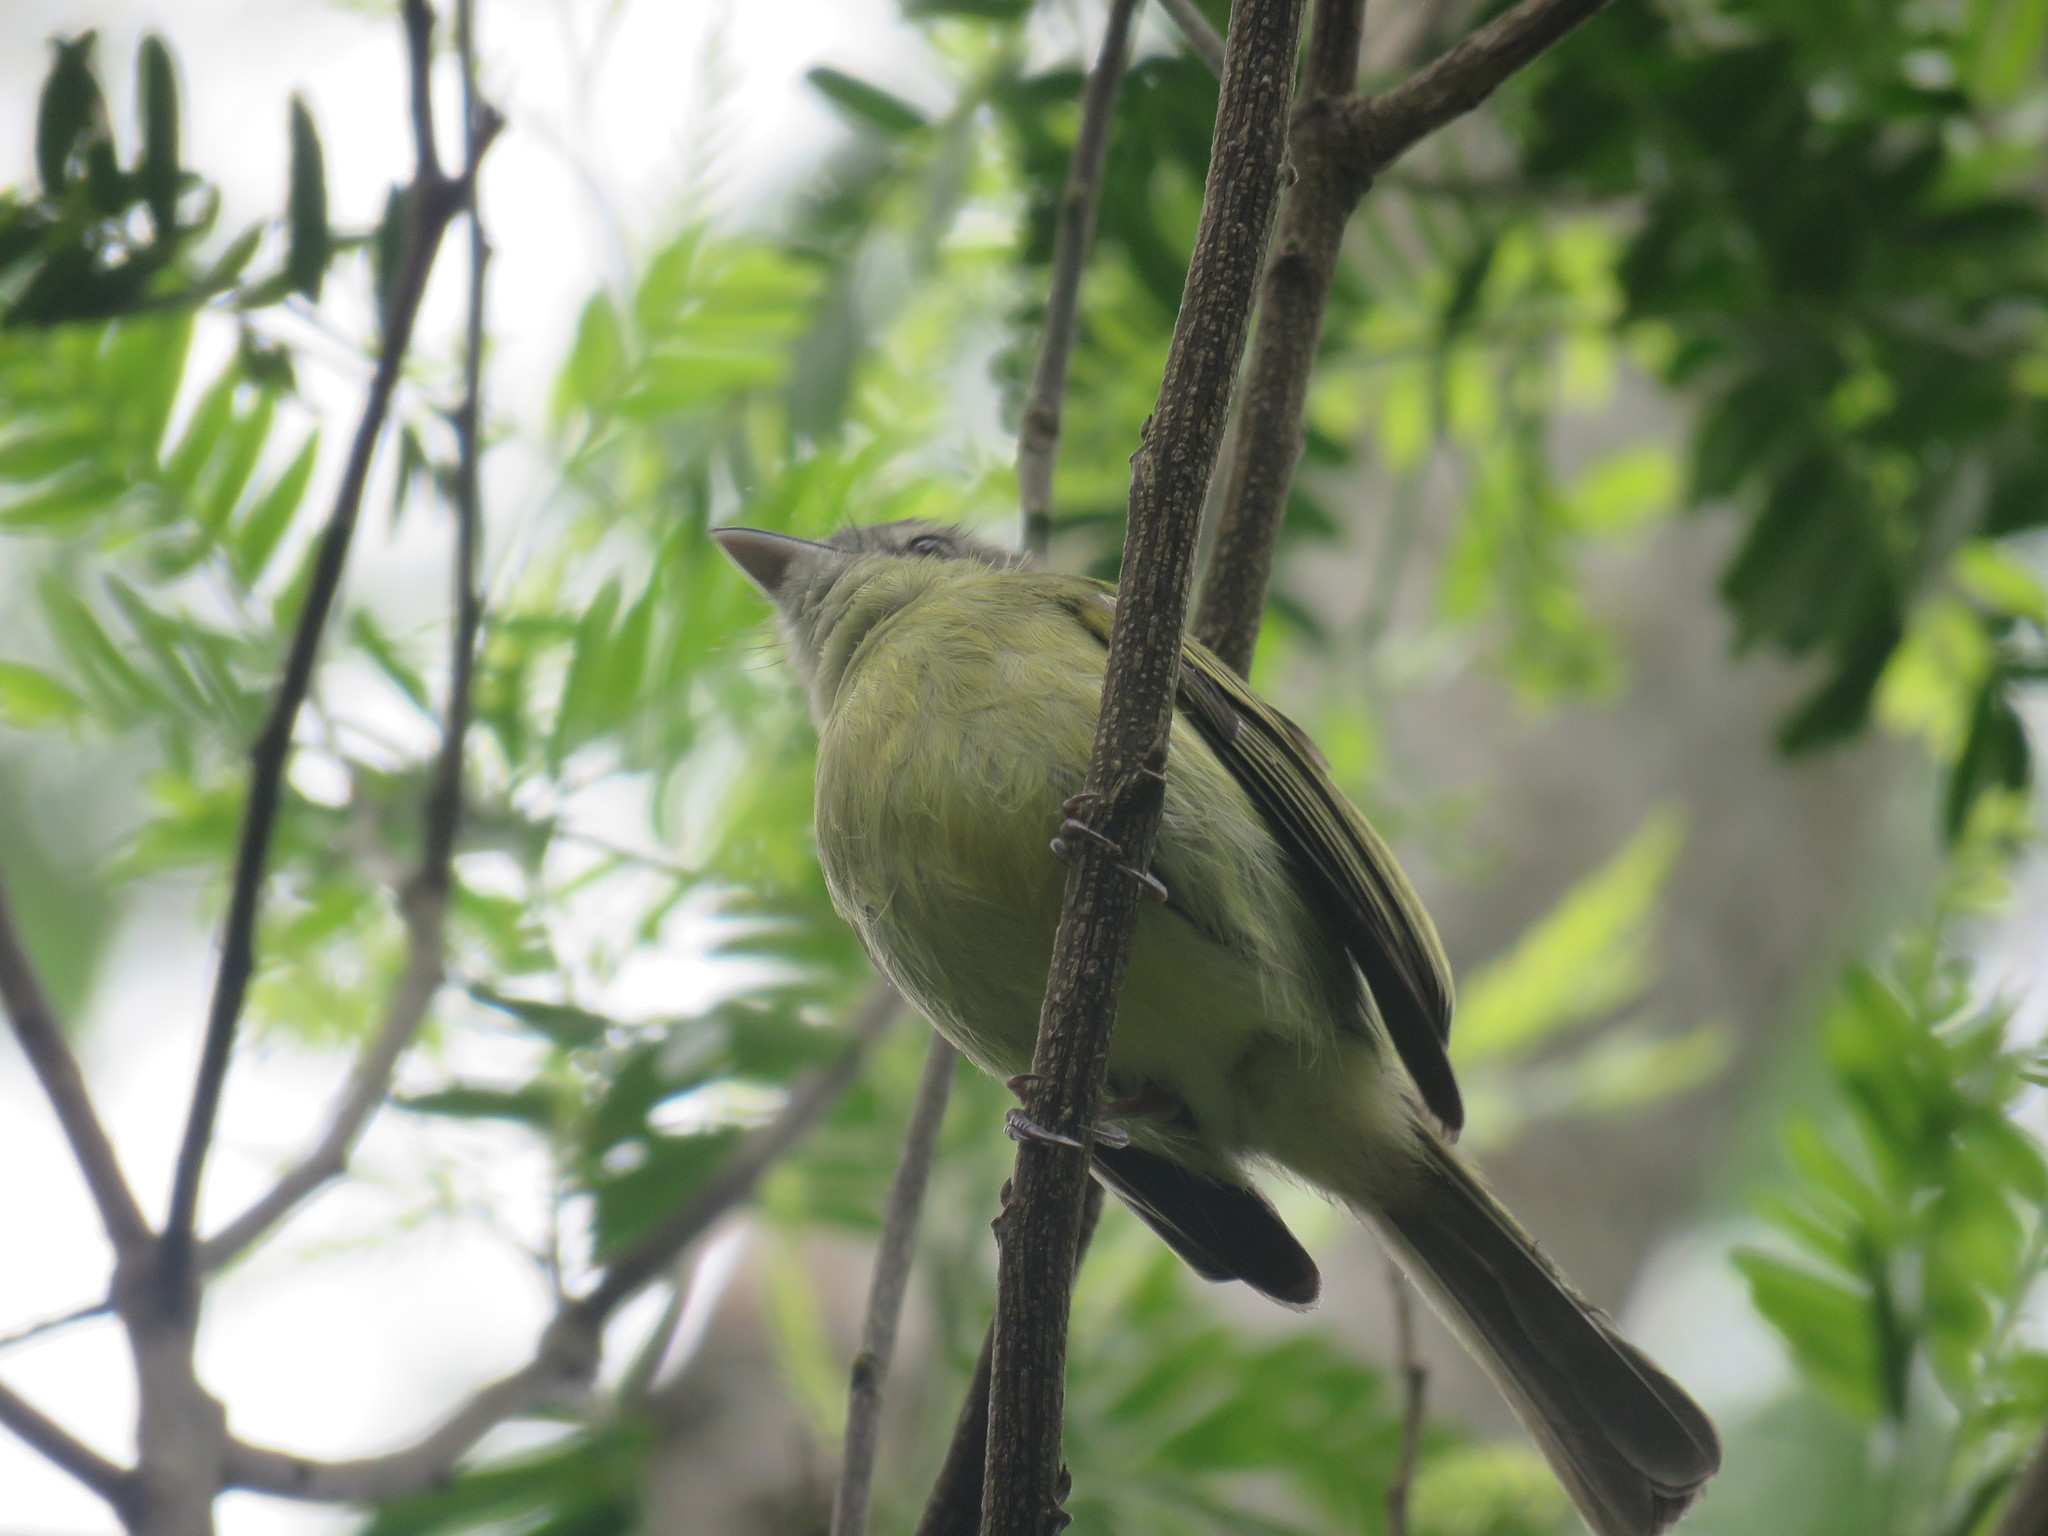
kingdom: Animalia
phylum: Chordata
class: Aves
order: Passeriformes
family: Tyrannidae
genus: Tolmomyias
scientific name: Tolmomyias sulphurescens
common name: Yellow-olive flycatcher
